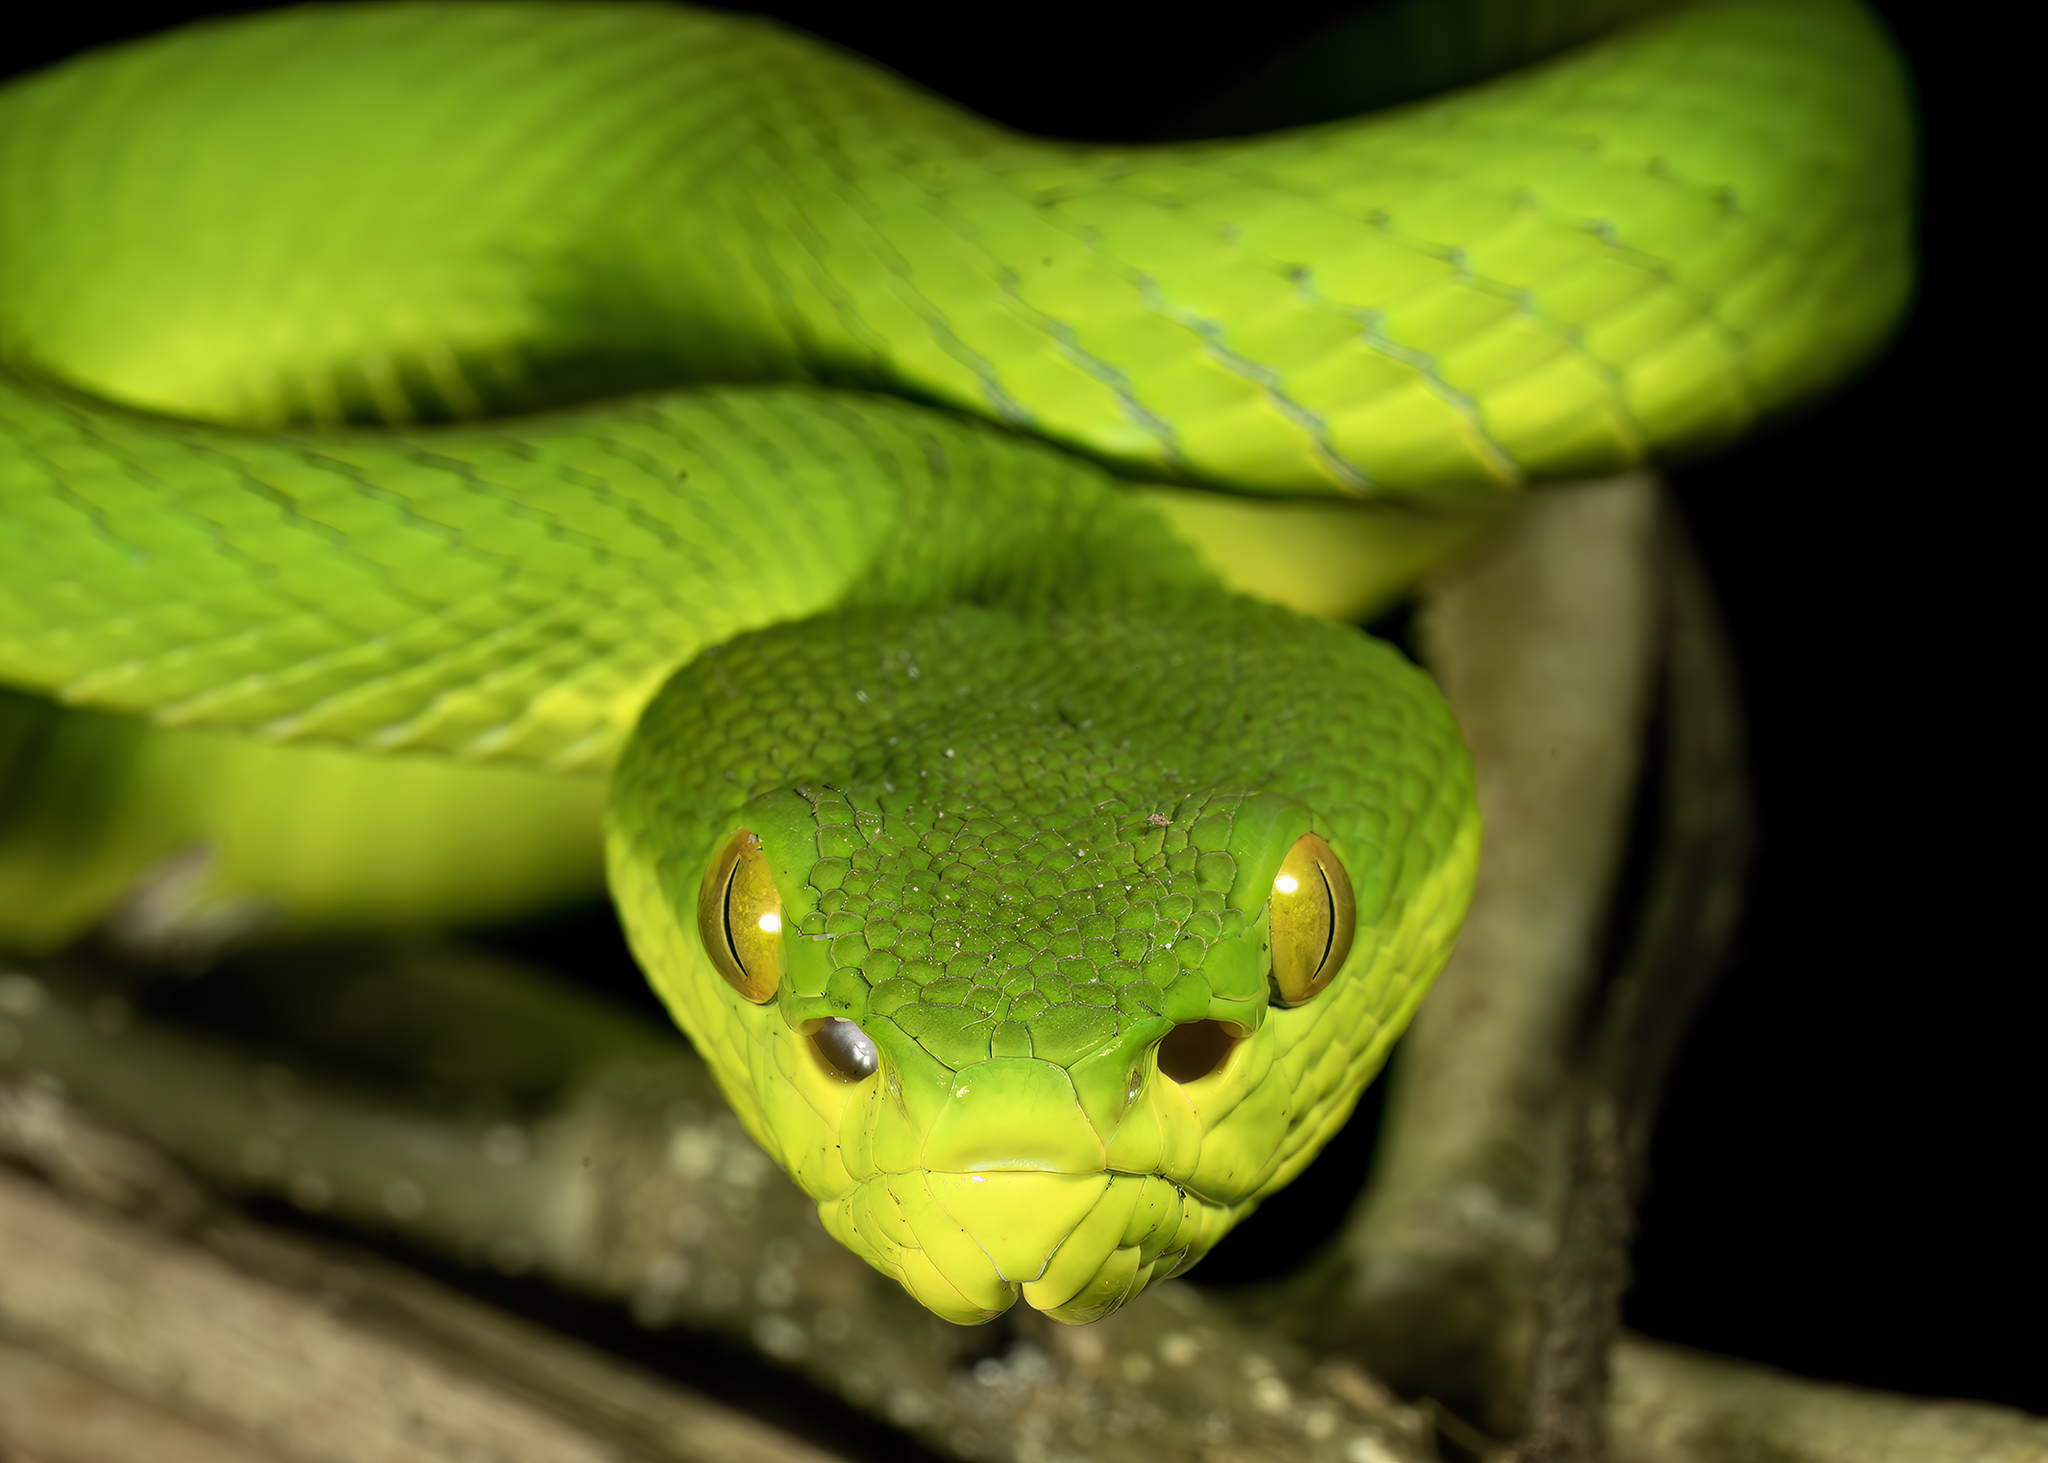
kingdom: Animalia
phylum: Chordata
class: Squamata
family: Viperidae
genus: Trimeresurus
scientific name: Trimeresurus albolabris
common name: White-lipped pitviper
